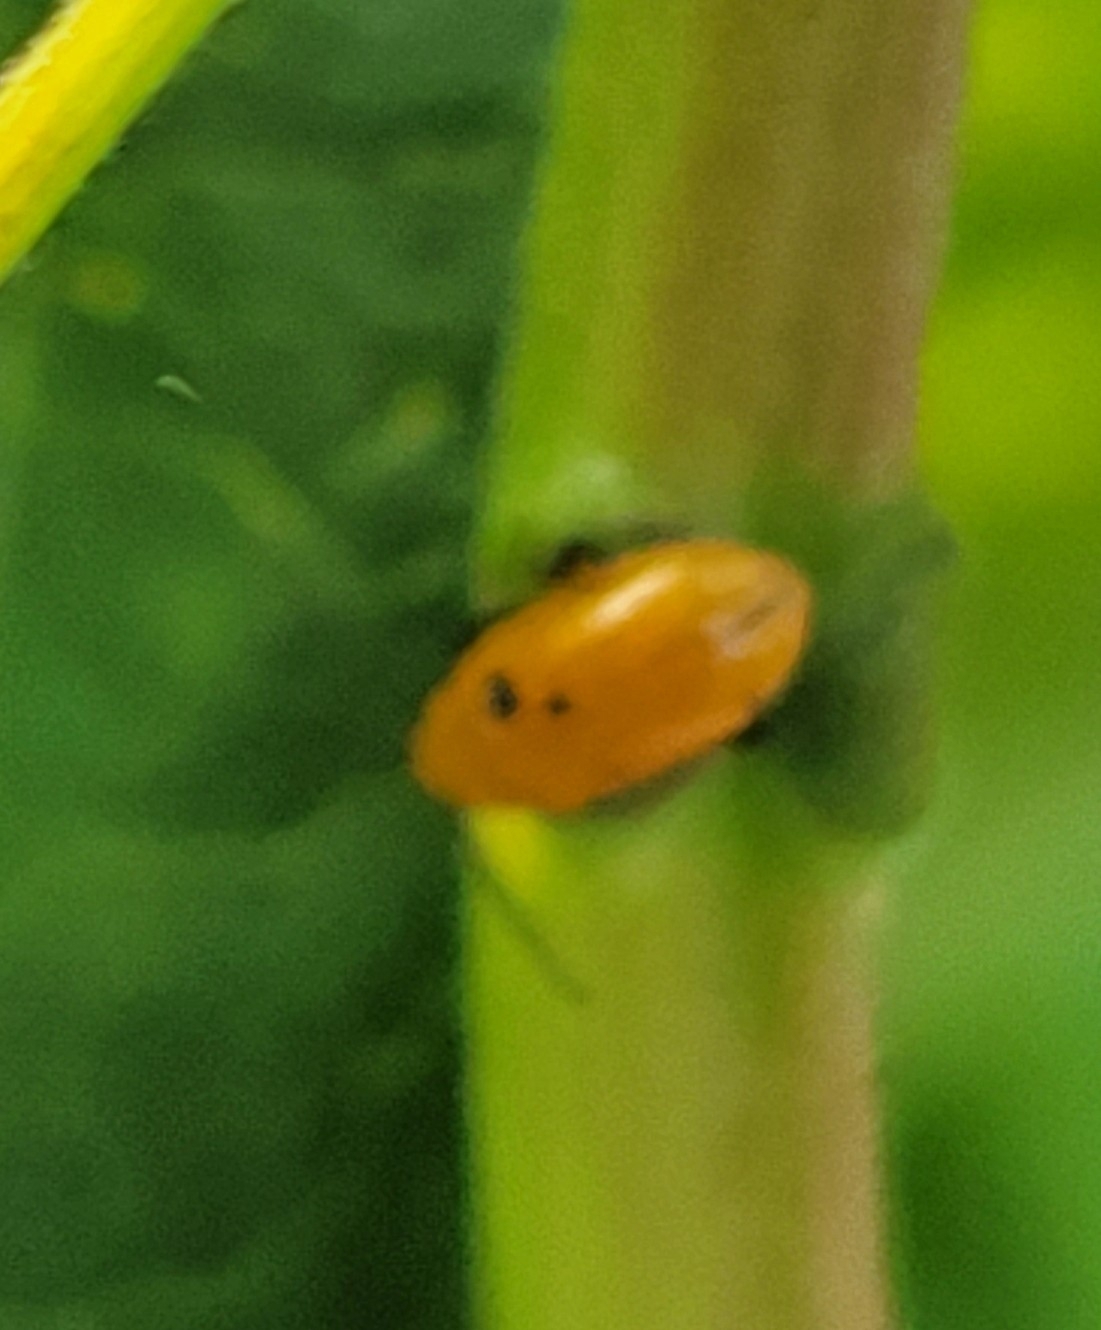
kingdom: Animalia
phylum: Arthropoda
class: Insecta
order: Coleoptera
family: Chrysomelidae
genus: Parchicola
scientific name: Parchicola tibialis
